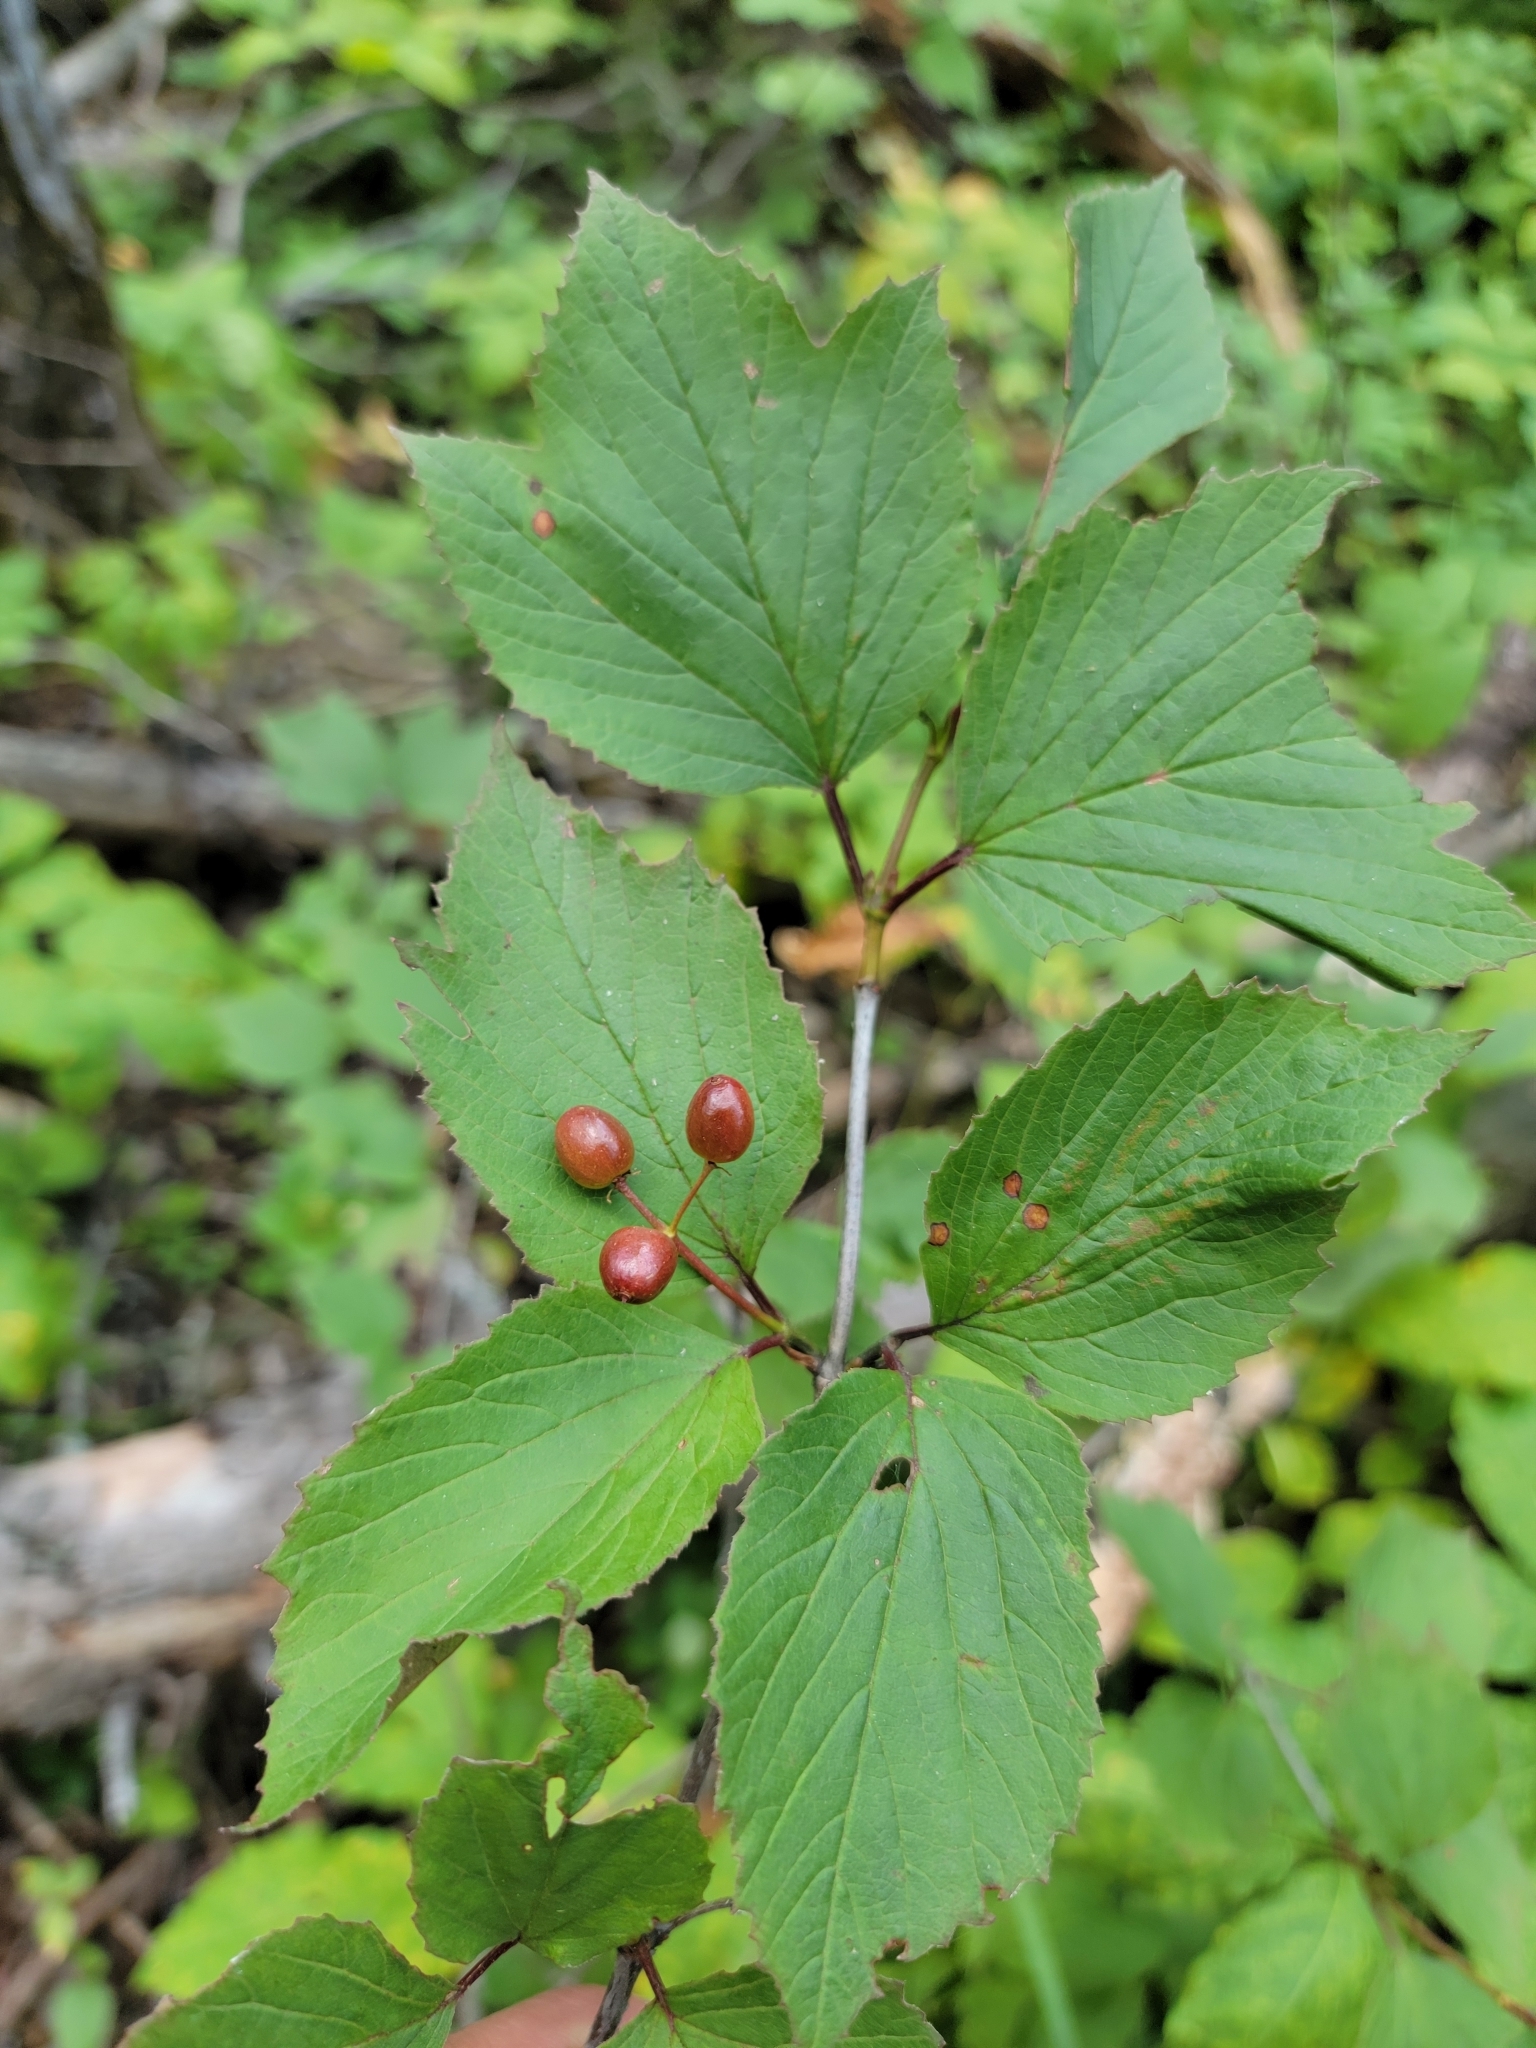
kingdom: Plantae
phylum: Tracheophyta
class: Magnoliopsida
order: Dipsacales
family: Viburnaceae
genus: Viburnum
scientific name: Viburnum edule
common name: Mooseberry
